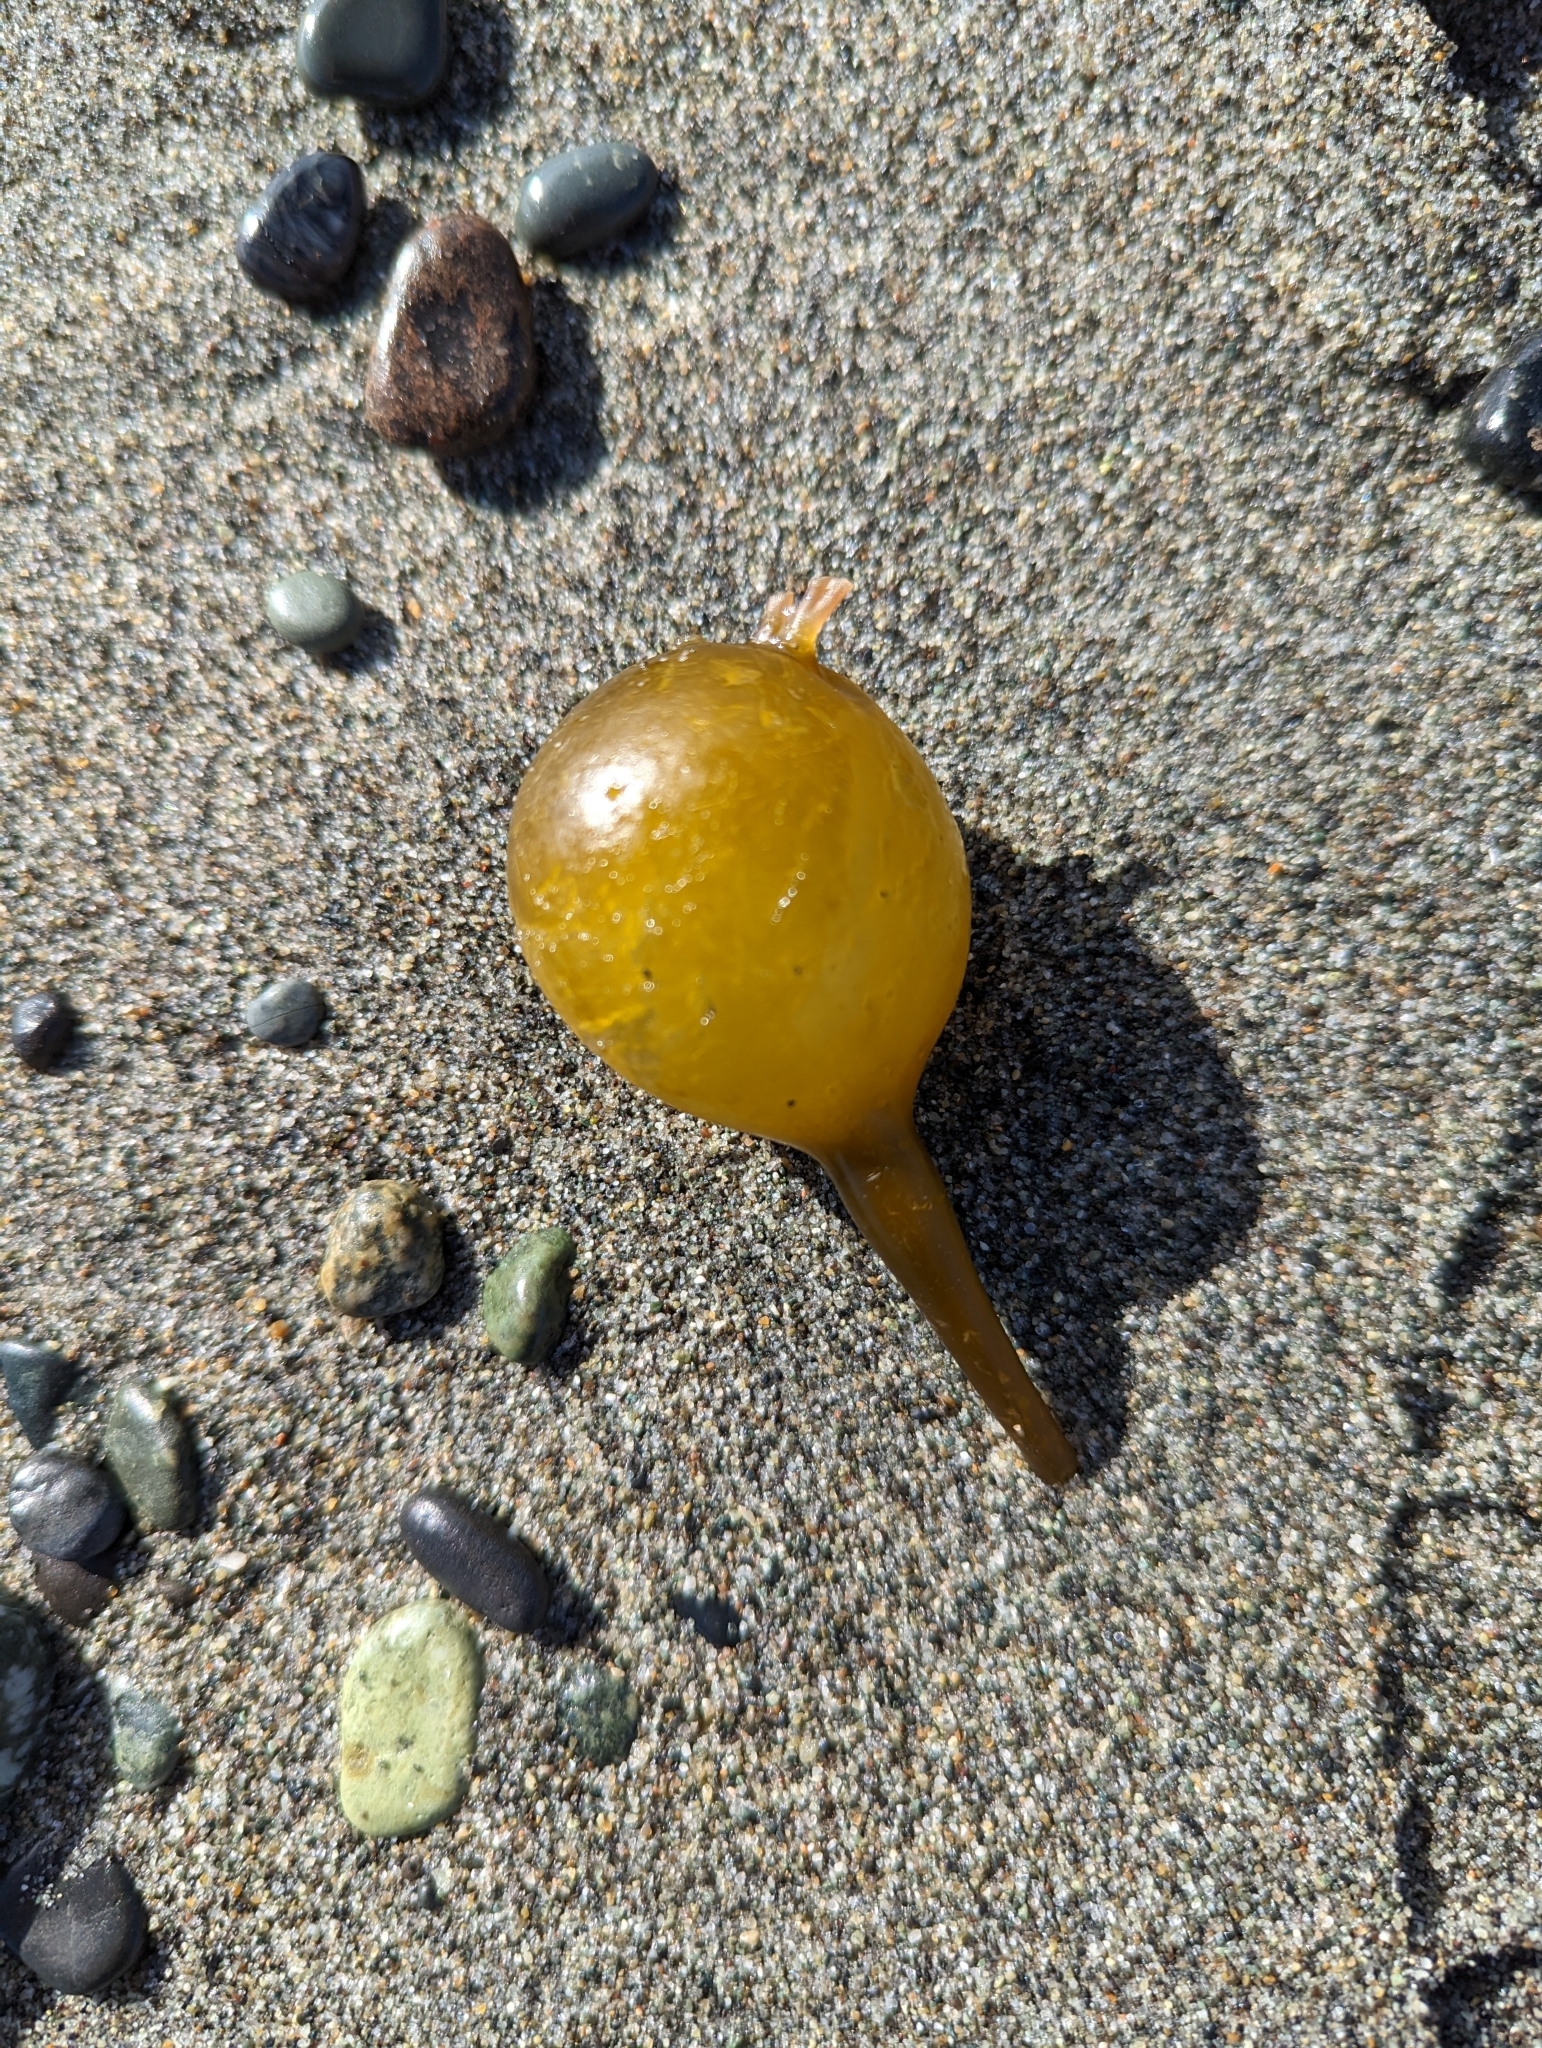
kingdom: Chromista
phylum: Ochrophyta
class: Phaeophyceae
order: Laminariales
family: Laminariaceae
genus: Nereocystis
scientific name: Nereocystis luetkeana
